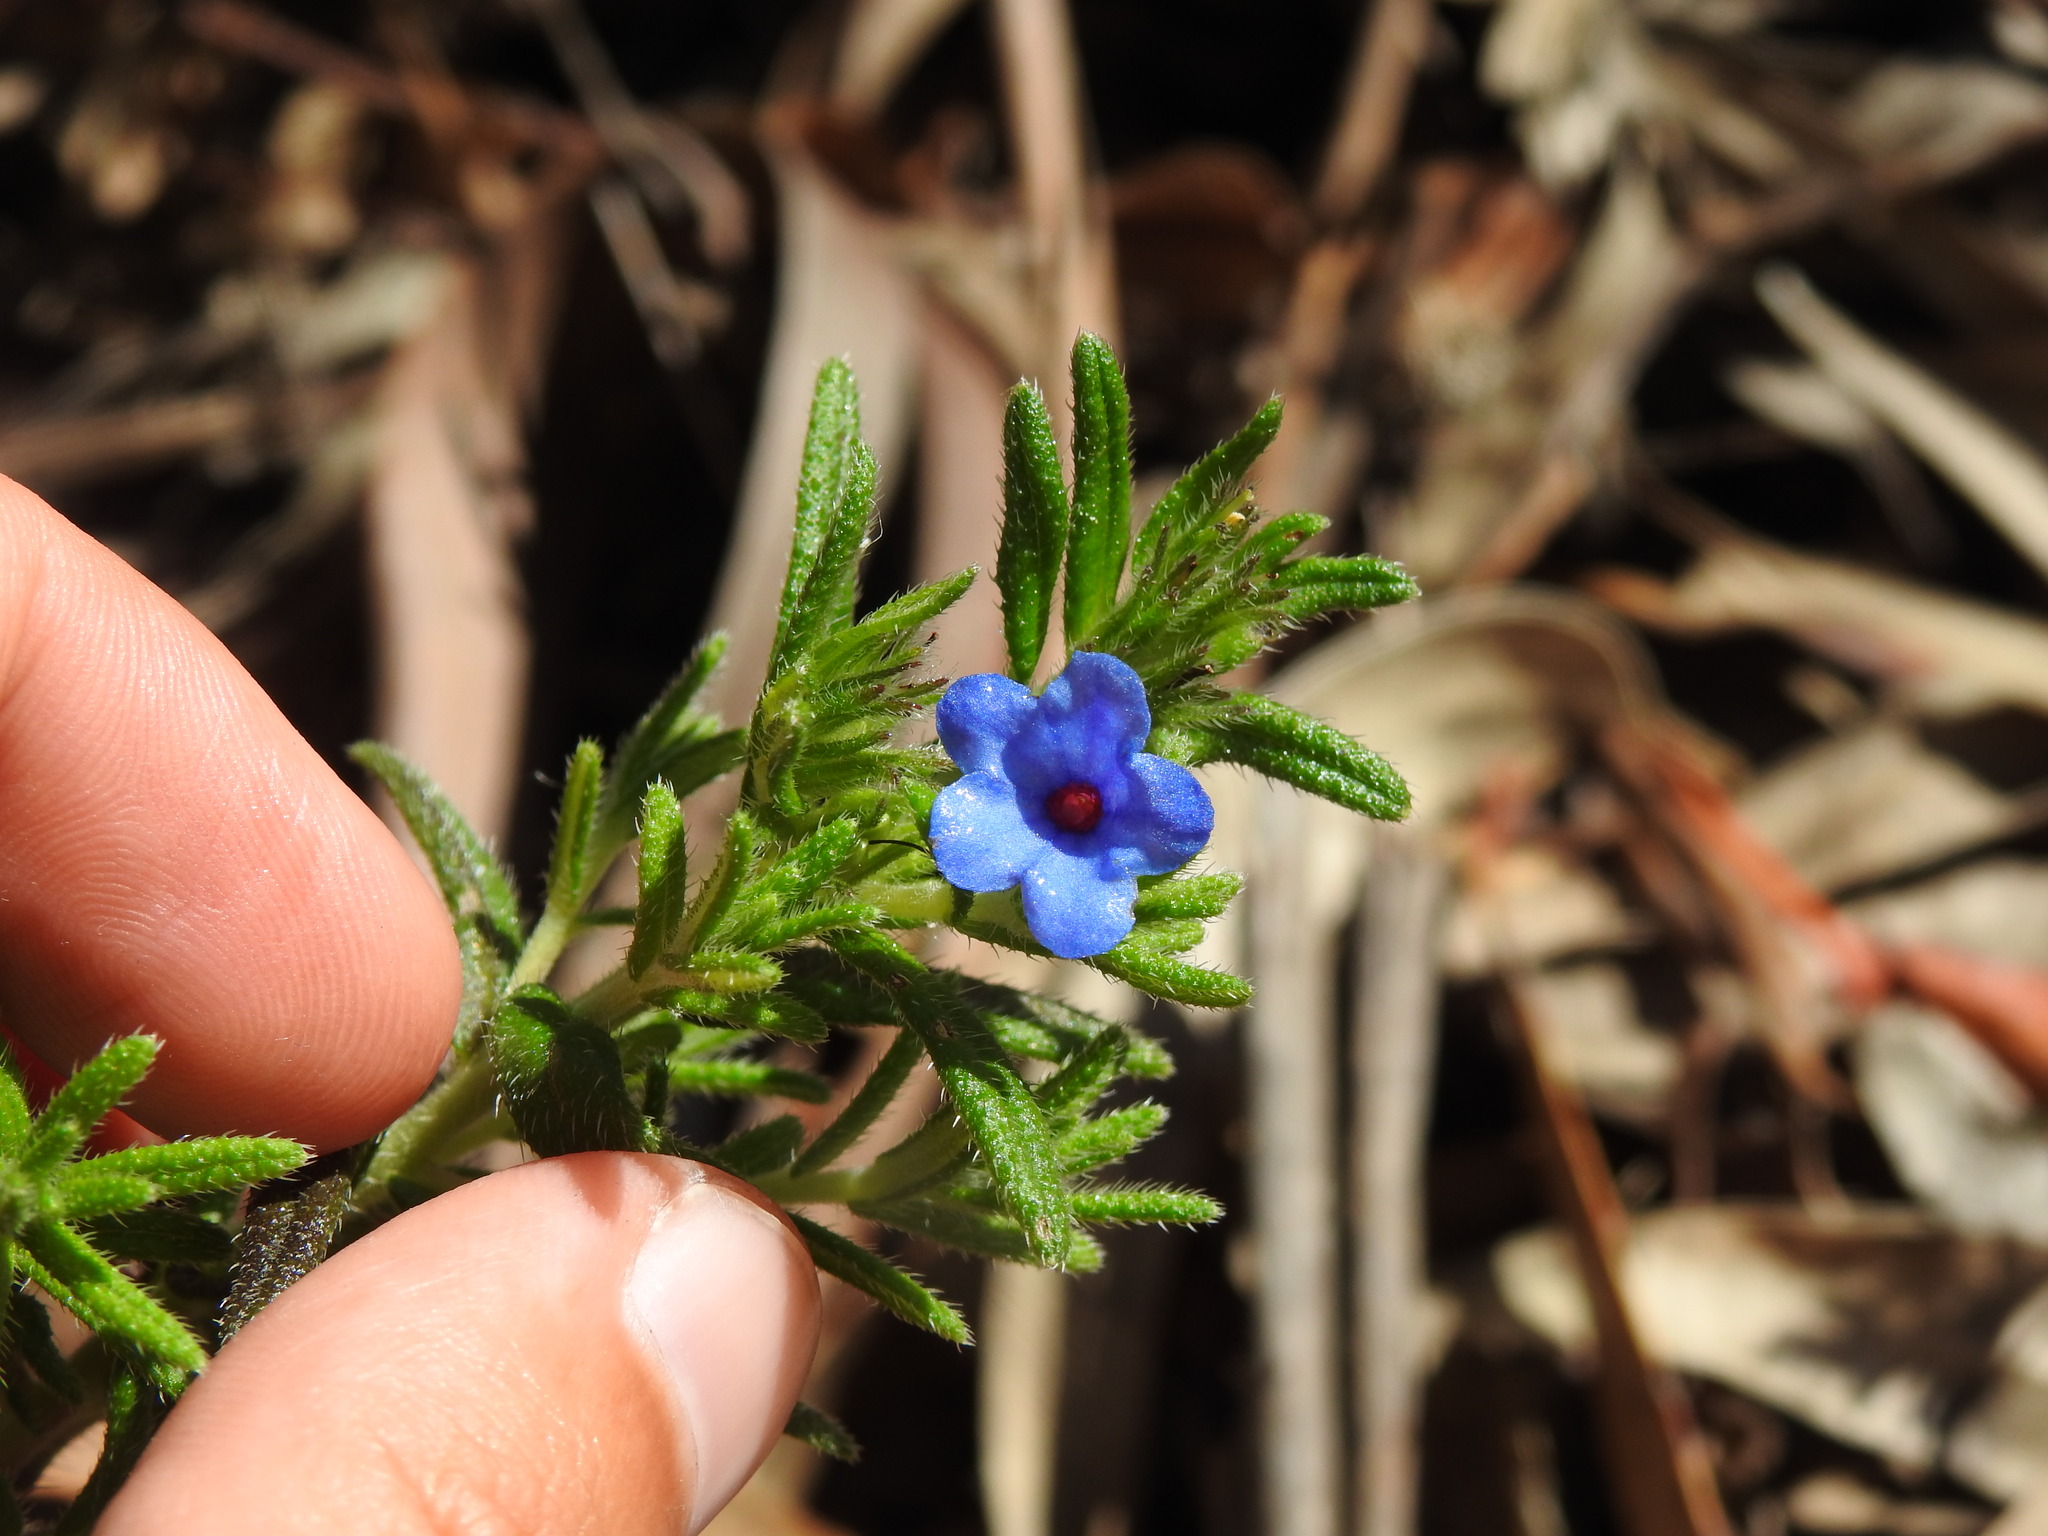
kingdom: Plantae
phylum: Tracheophyta
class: Magnoliopsida
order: Boraginales
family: Boraginaceae
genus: Glandora
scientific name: Glandora prostrata
